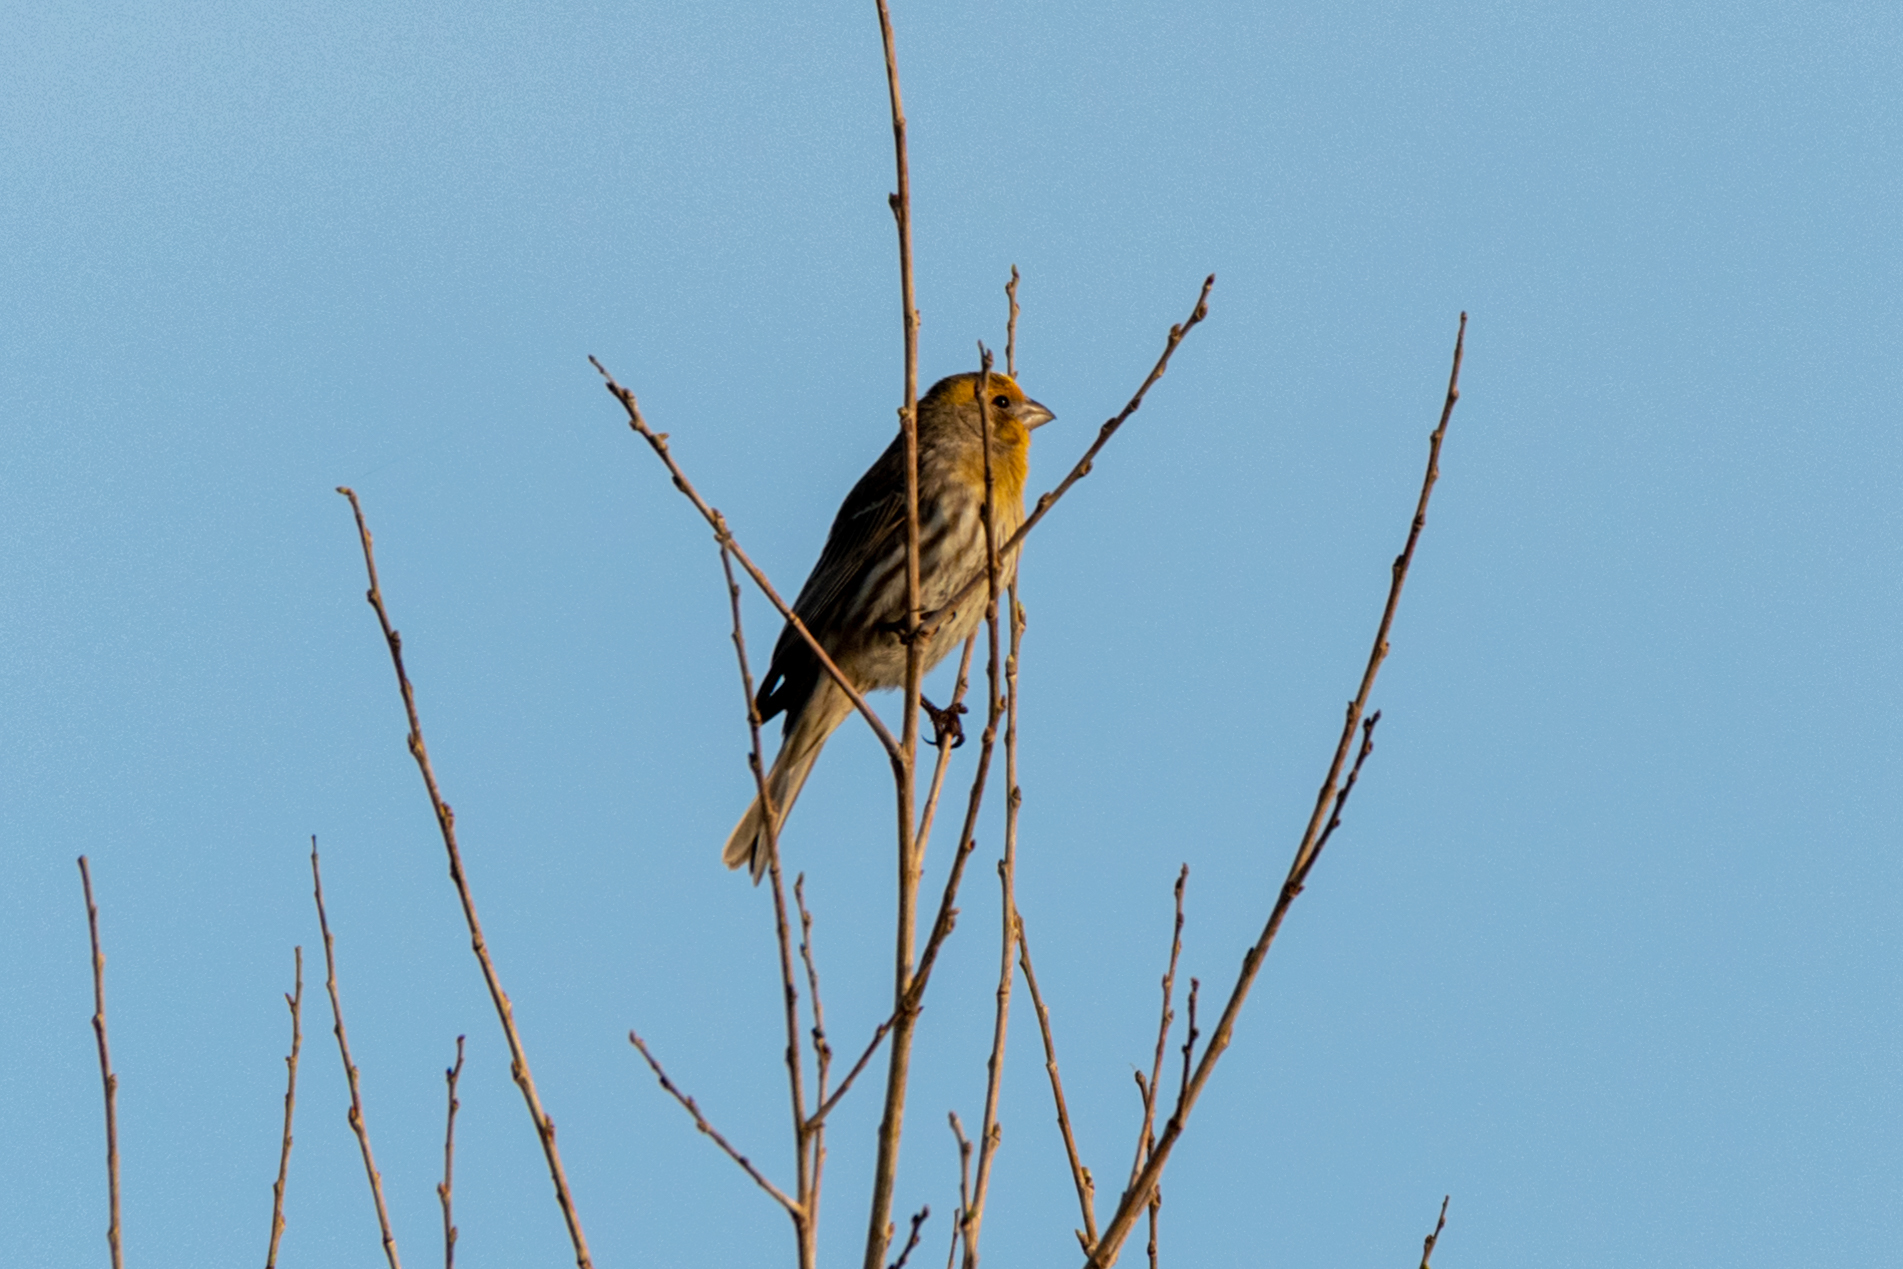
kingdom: Animalia
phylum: Chordata
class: Aves
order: Passeriformes
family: Fringillidae
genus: Haemorhous
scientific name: Haemorhous mexicanus
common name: House finch
